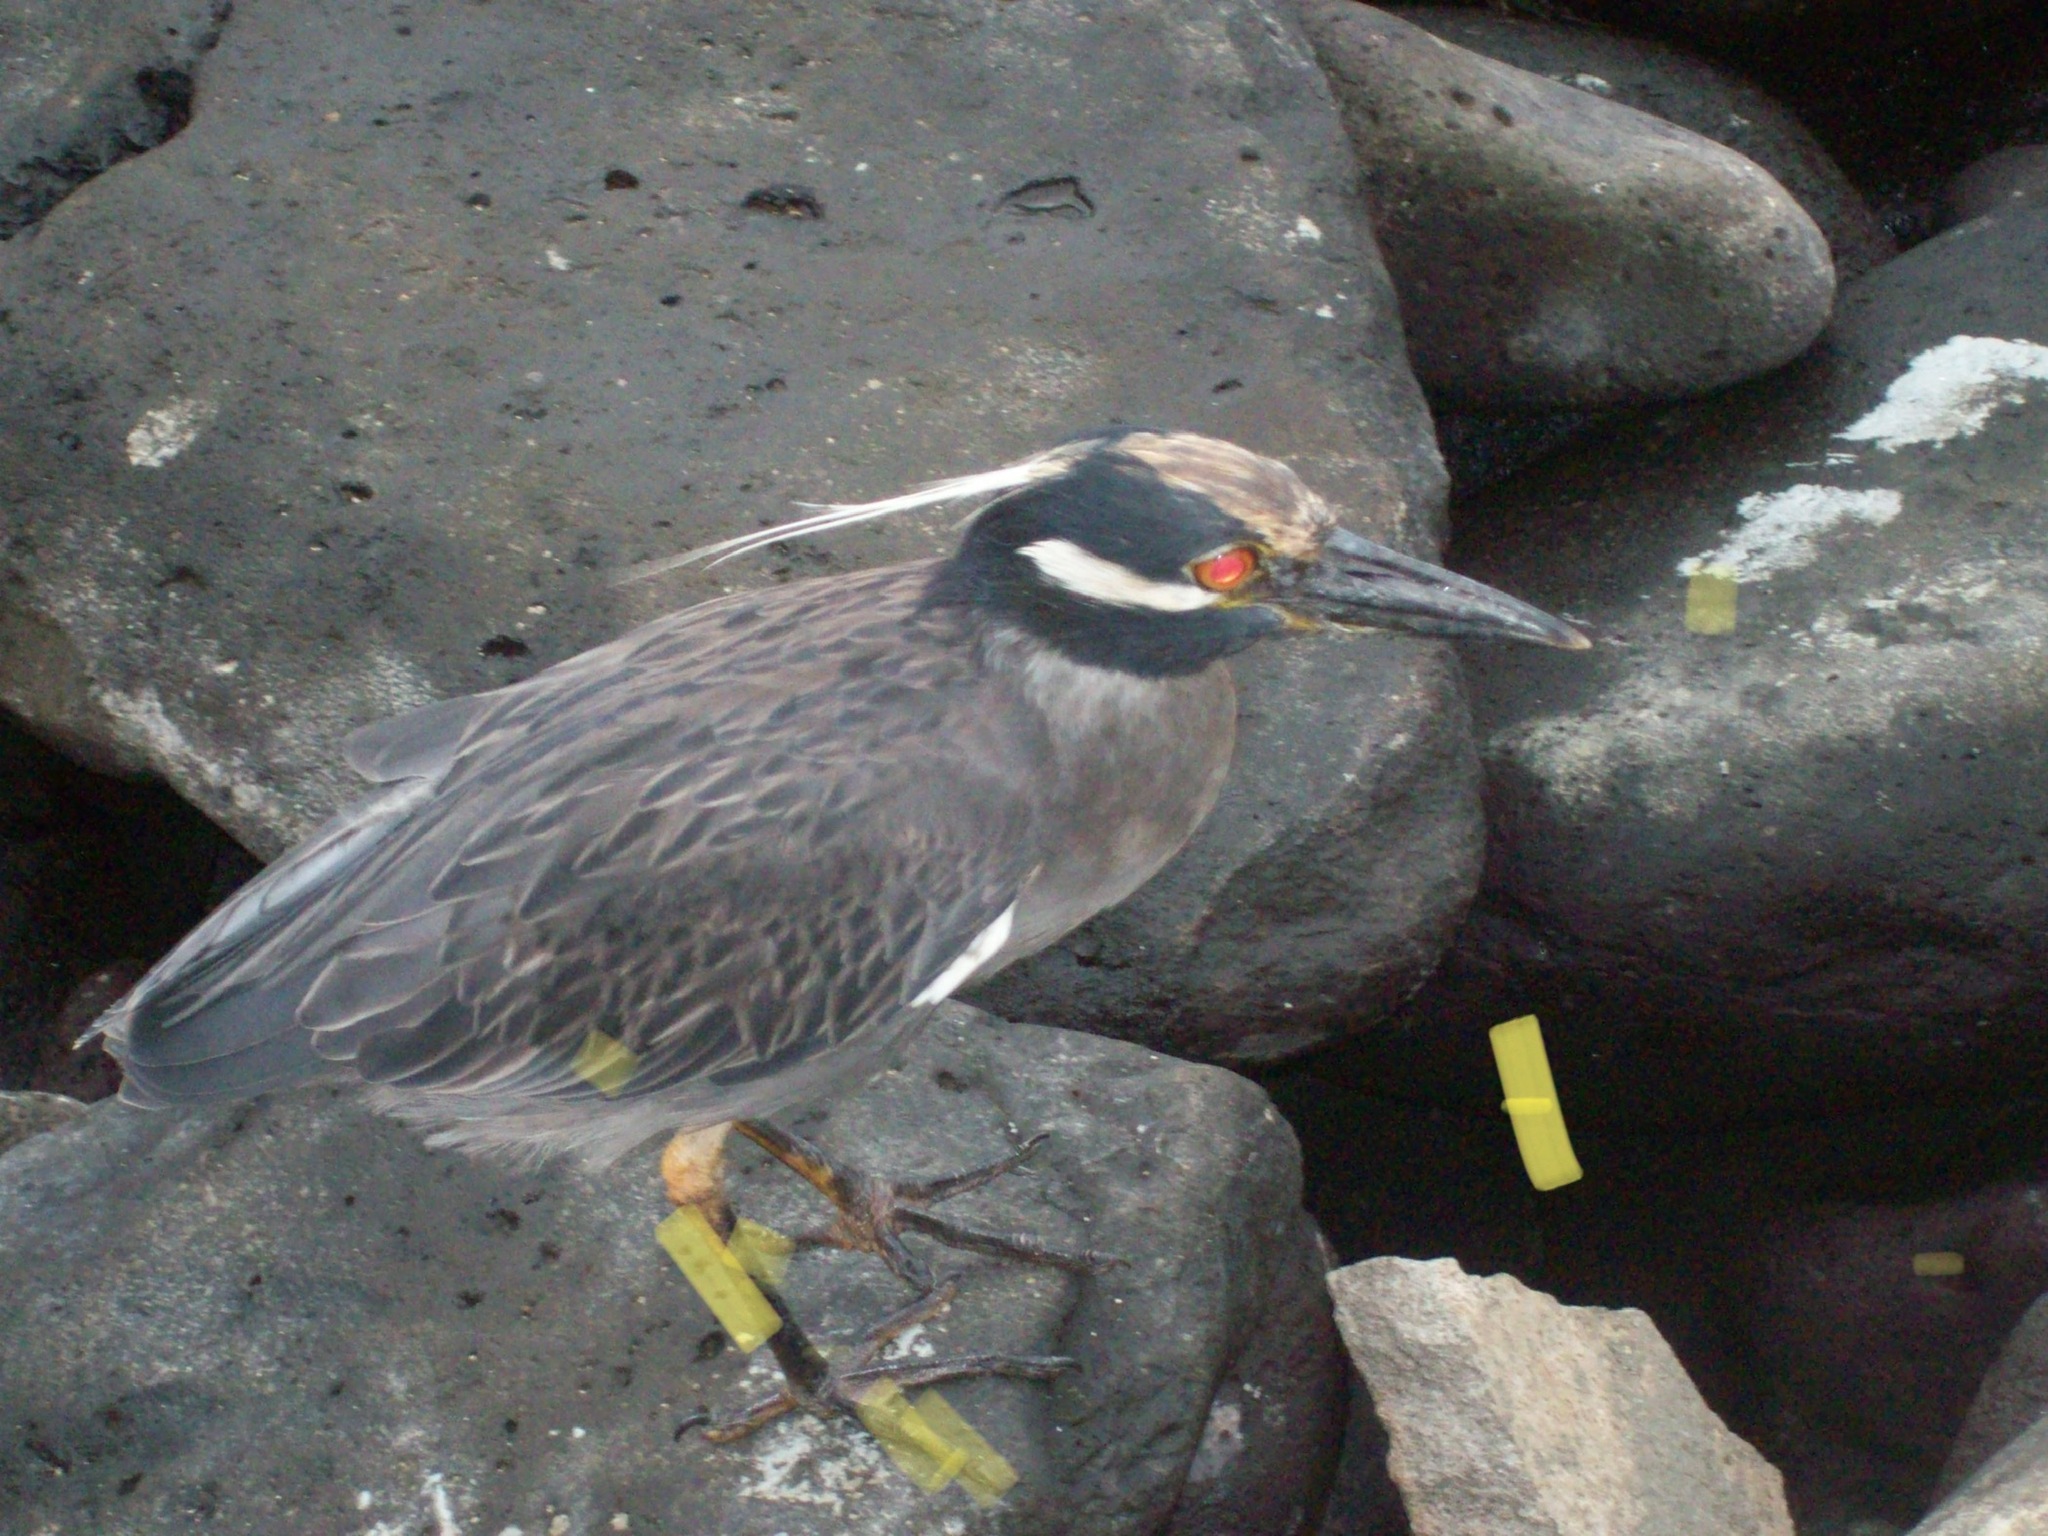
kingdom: Animalia
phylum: Chordata
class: Aves
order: Pelecaniformes
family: Ardeidae
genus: Nyctanassa
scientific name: Nyctanassa violacea
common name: Yellow-crowned night heron
